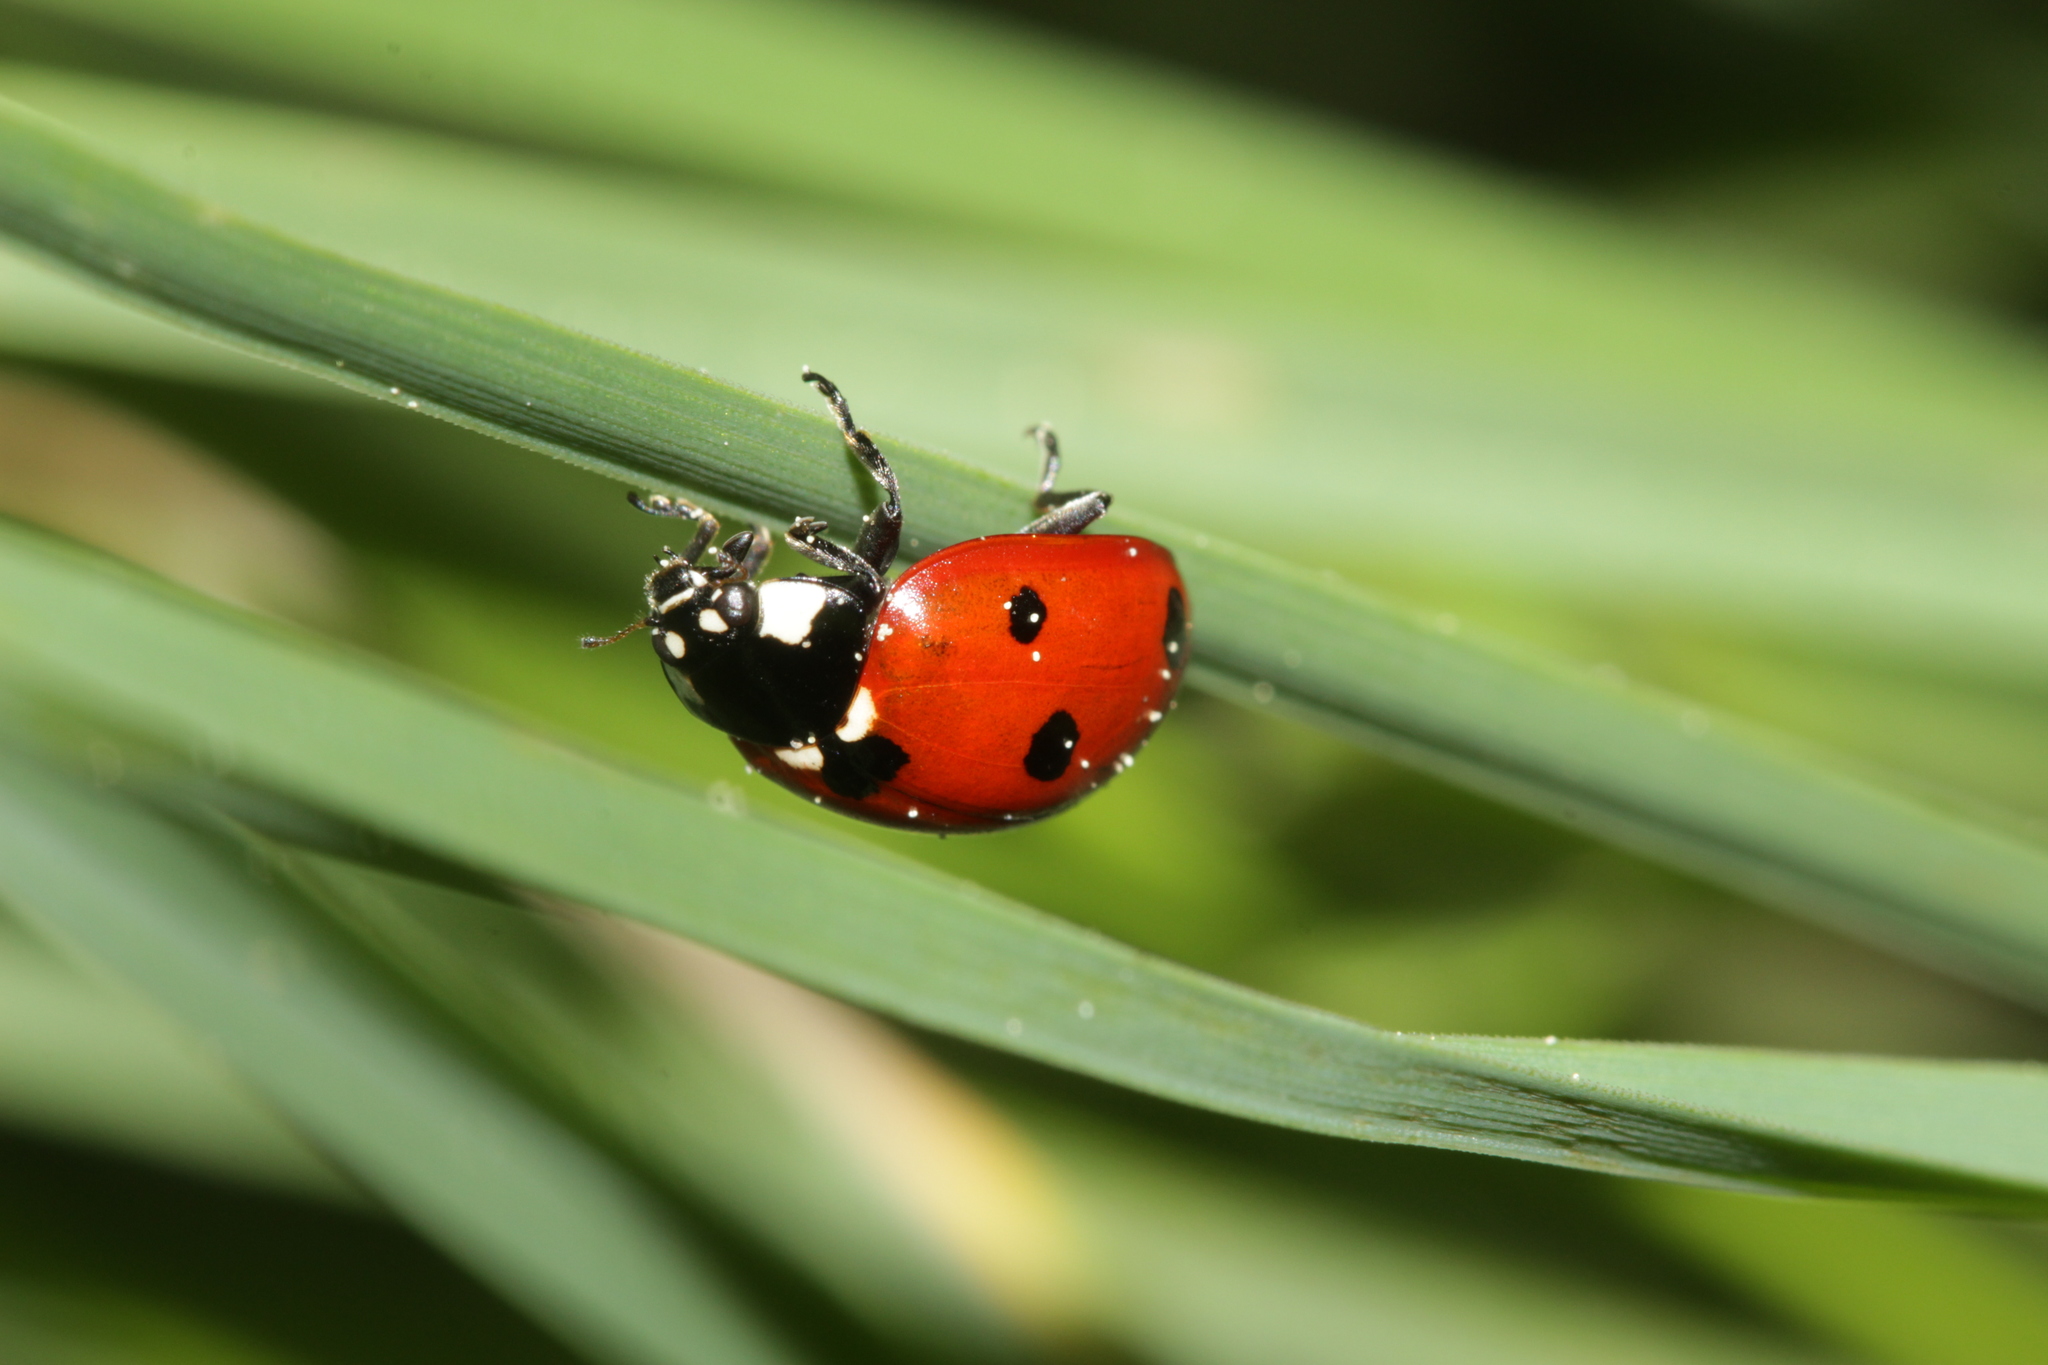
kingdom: Animalia
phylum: Arthropoda
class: Insecta
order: Coleoptera
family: Coccinellidae
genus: Coccinella
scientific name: Coccinella septempunctata
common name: Sevenspotted lady beetle
